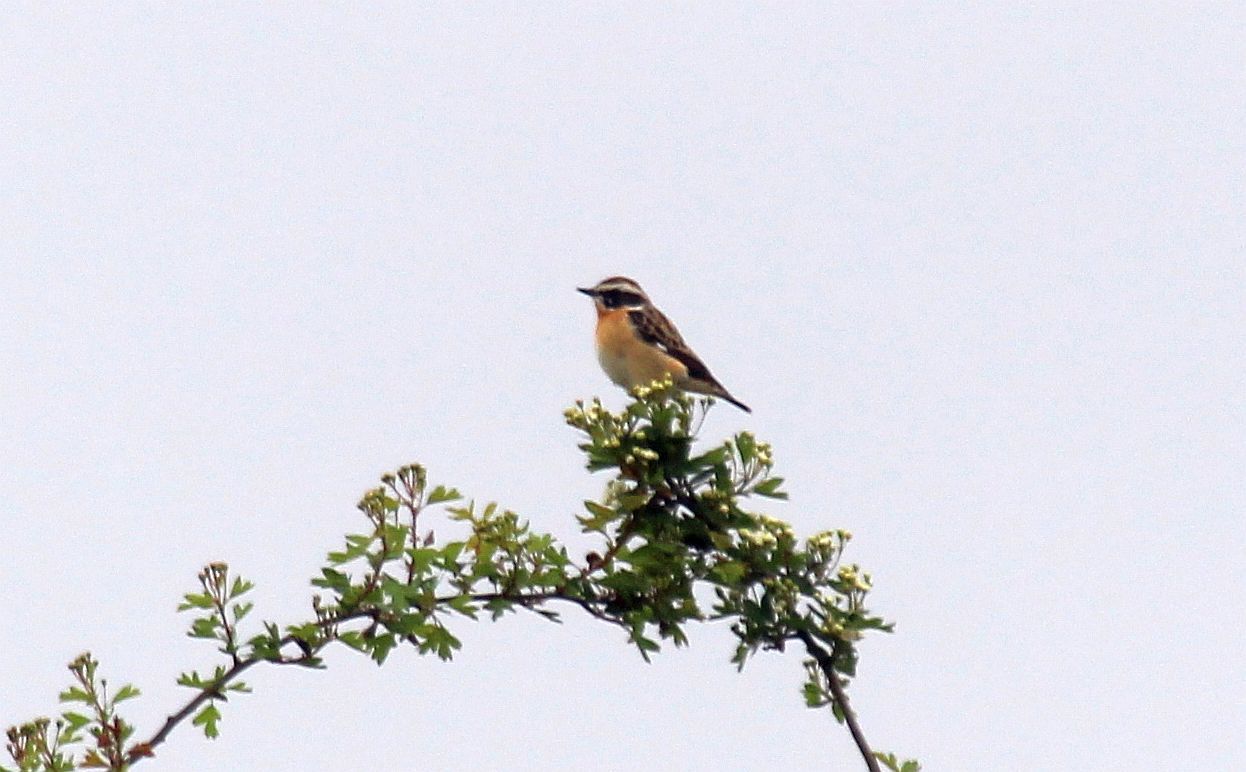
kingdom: Animalia
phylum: Chordata
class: Aves
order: Passeriformes
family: Muscicapidae
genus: Saxicola
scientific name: Saxicola rubetra
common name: Whinchat
